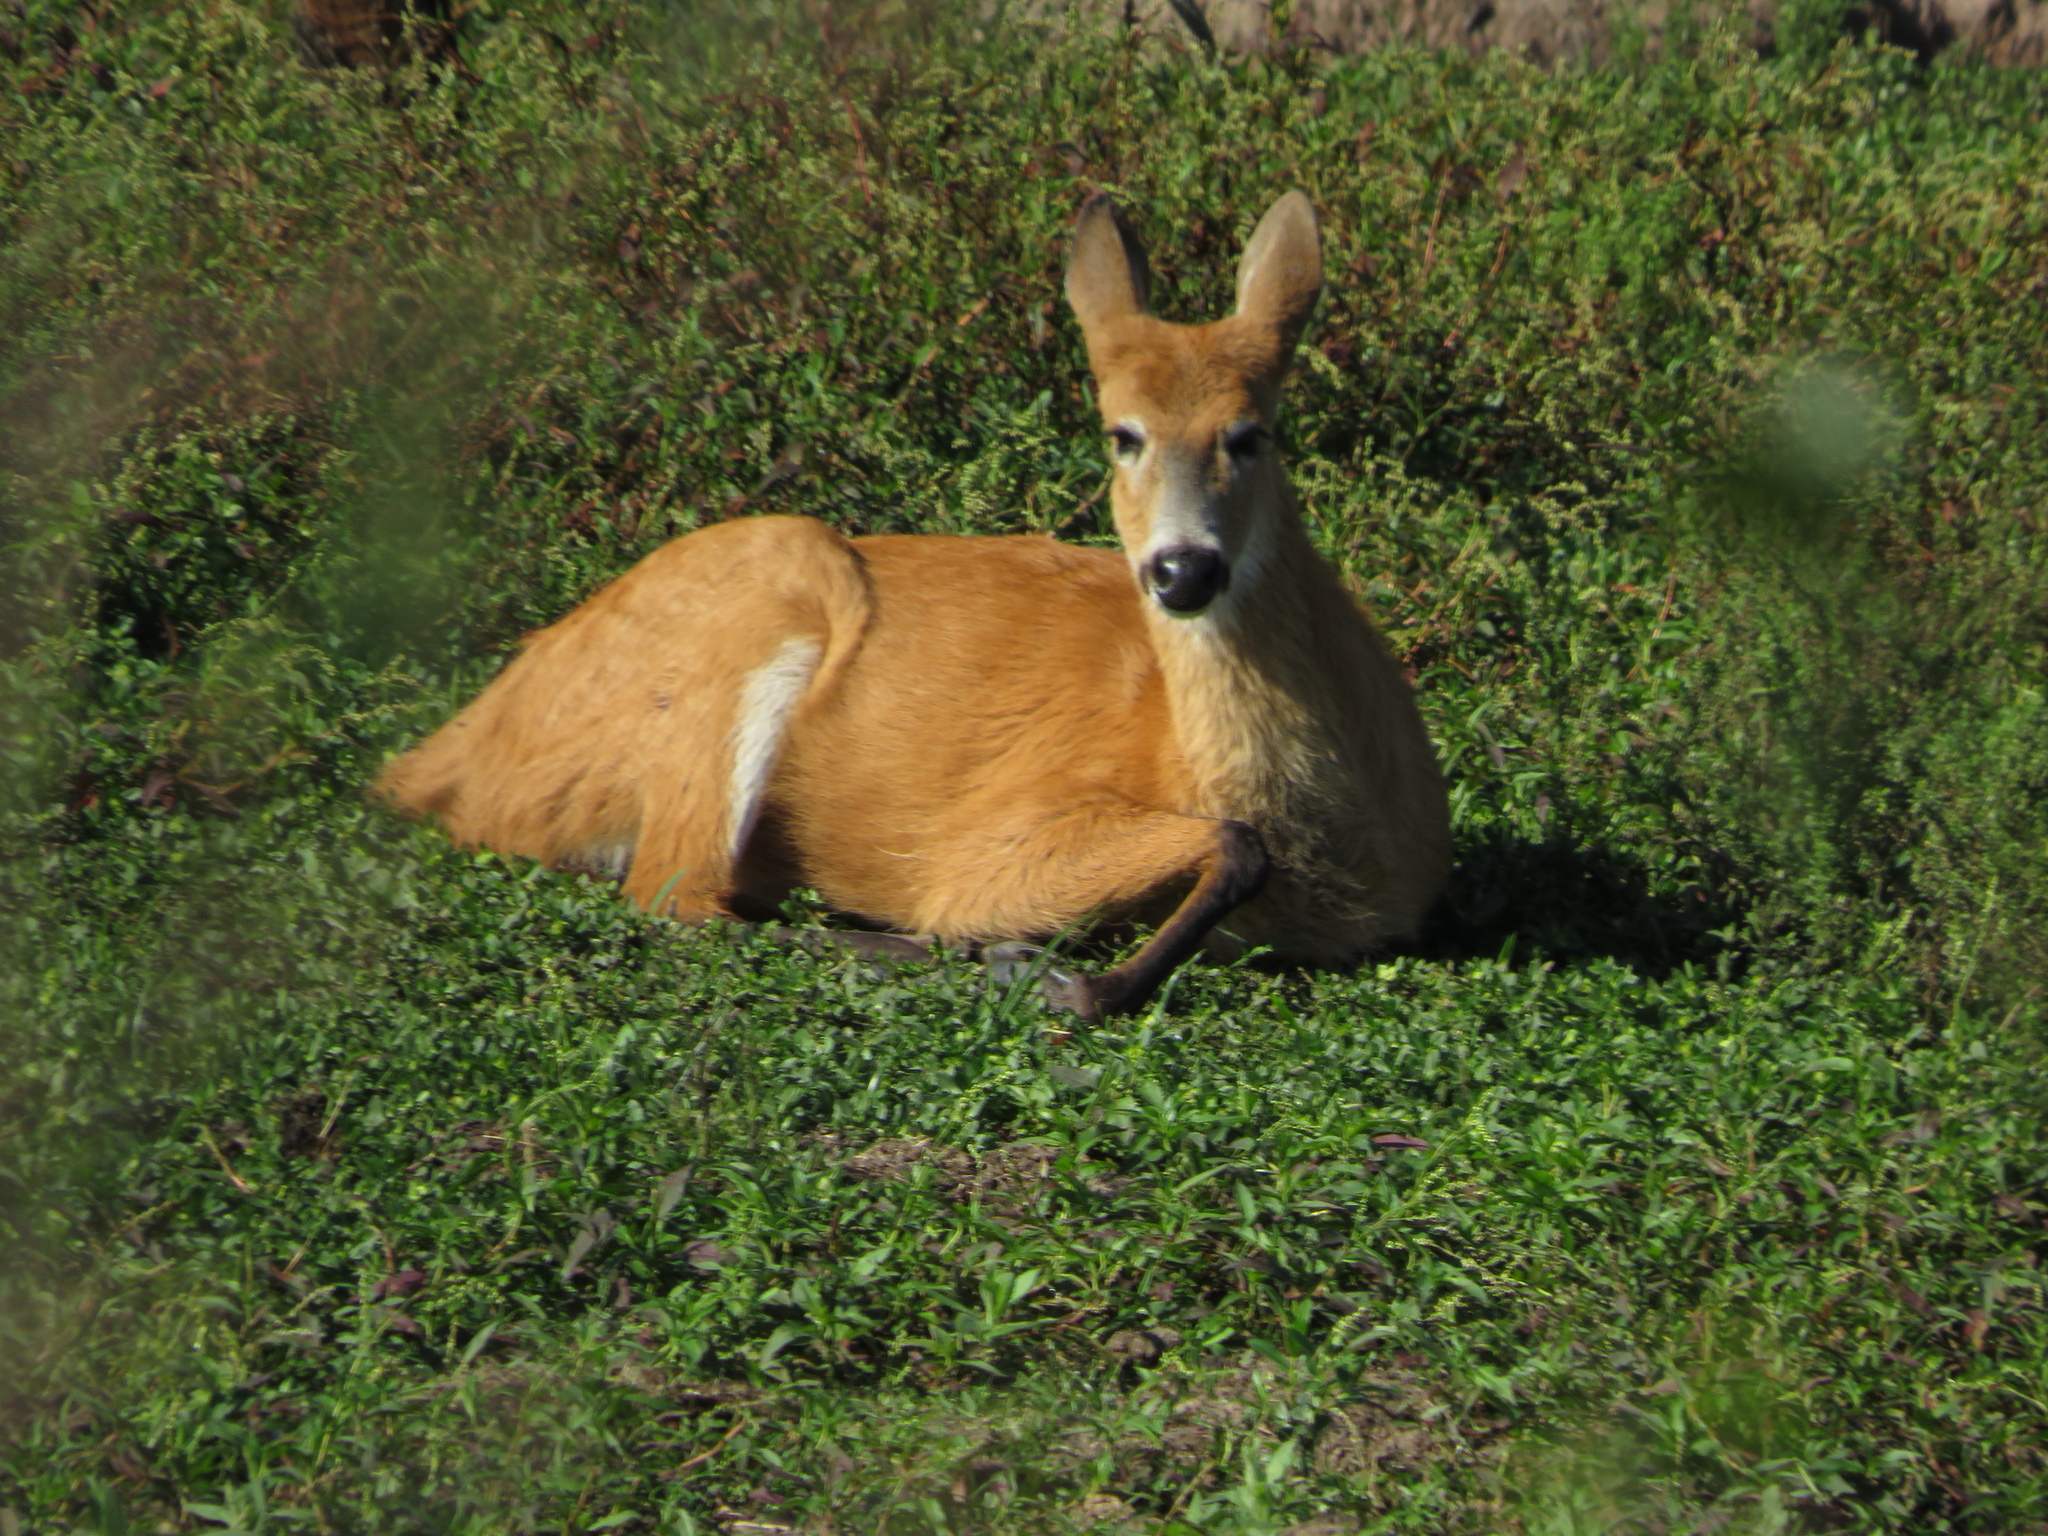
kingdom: Animalia
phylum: Chordata
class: Mammalia
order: Artiodactyla
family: Cervidae
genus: Blastocerus
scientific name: Blastocerus dichotomus
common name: Marsh deer
